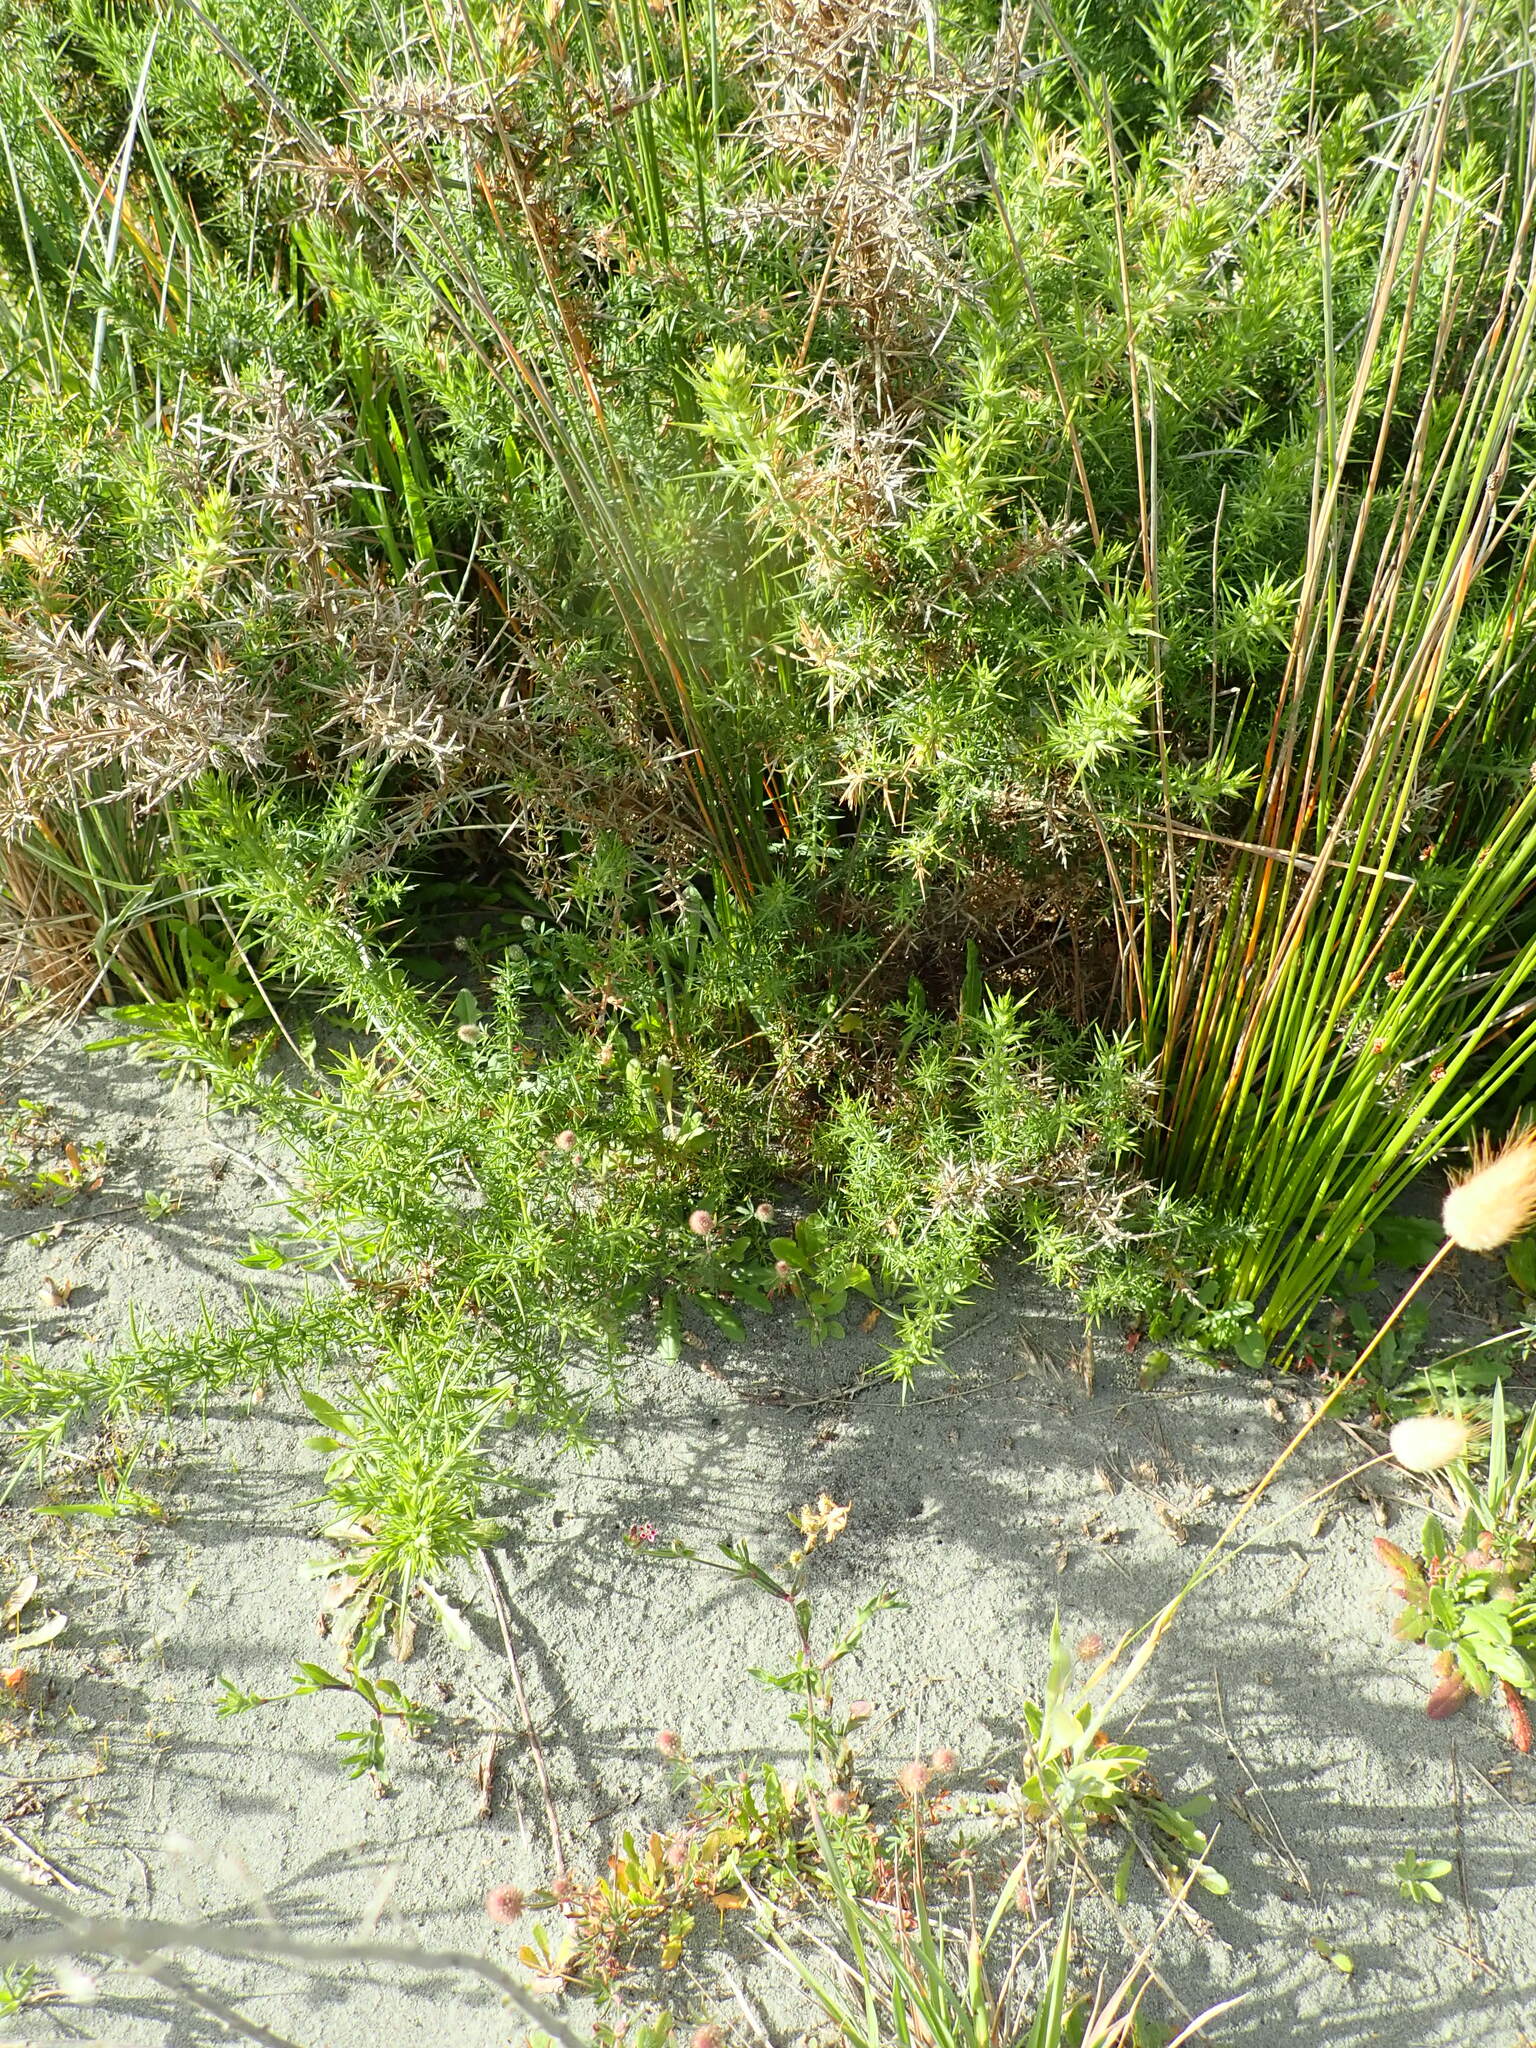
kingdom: Plantae
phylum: Tracheophyta
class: Magnoliopsida
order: Fabales
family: Fabaceae
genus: Ulex
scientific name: Ulex europaeus
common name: Common gorse
